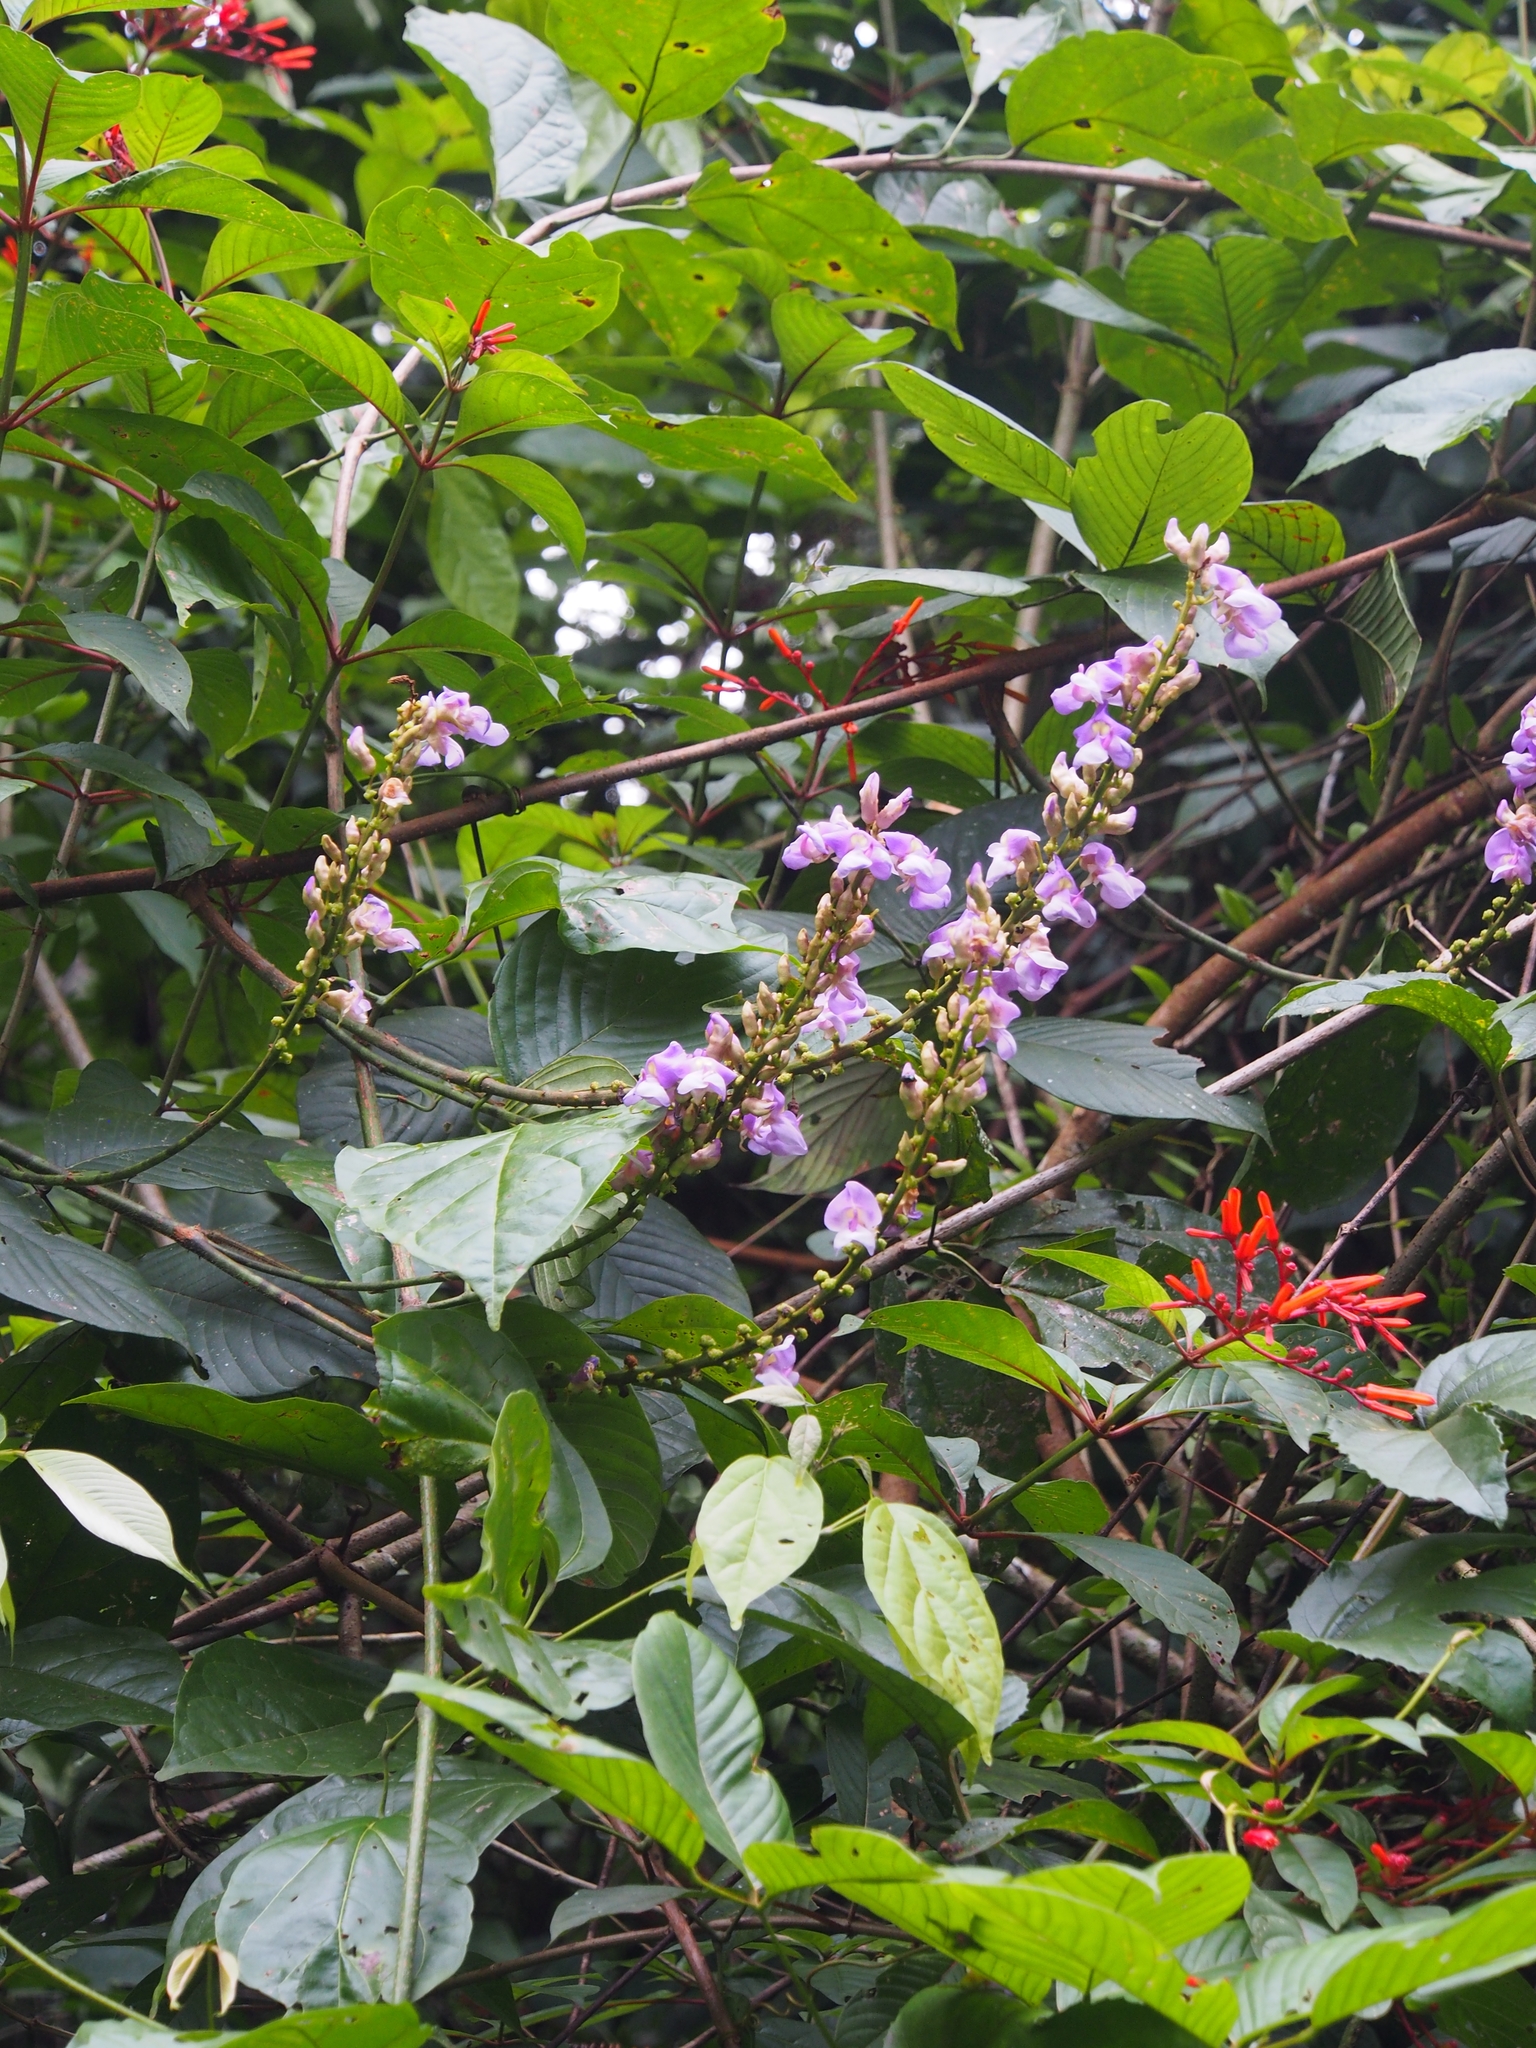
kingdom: Plantae
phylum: Tracheophyta
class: Magnoliopsida
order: Fabales
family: Fabaceae
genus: Macropsychanthus
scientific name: Macropsychanthus magnus
